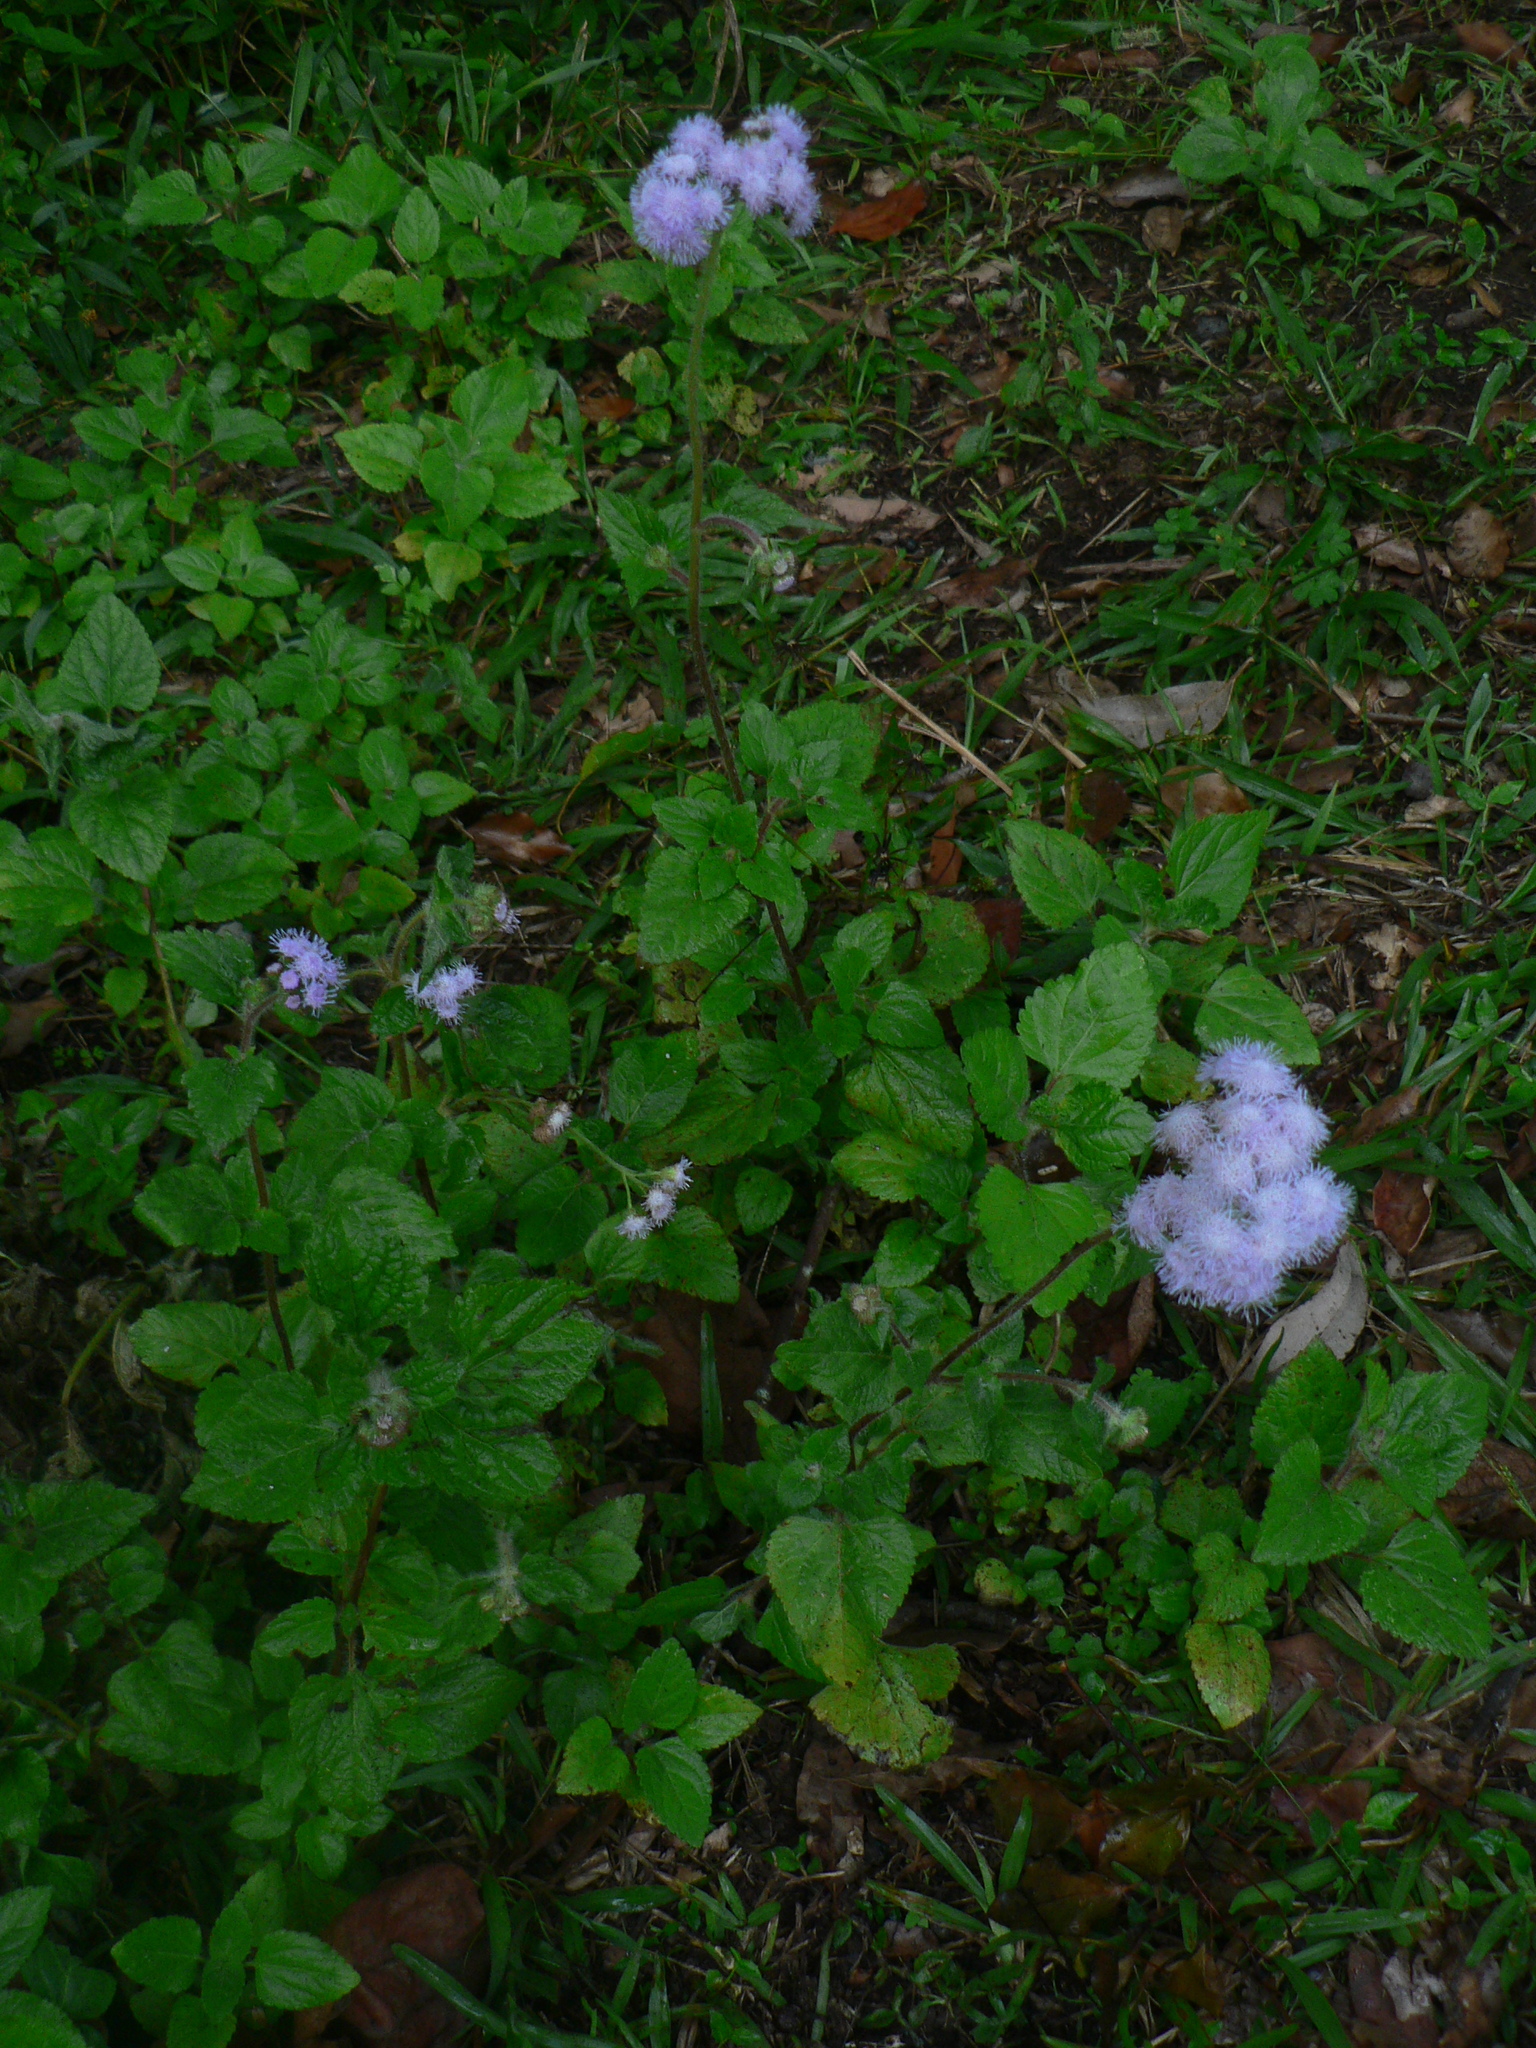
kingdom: Plantae
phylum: Tracheophyta
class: Magnoliopsida
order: Asterales
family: Asteraceae
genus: Ageratum
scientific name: Ageratum houstonianum
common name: Bluemink
